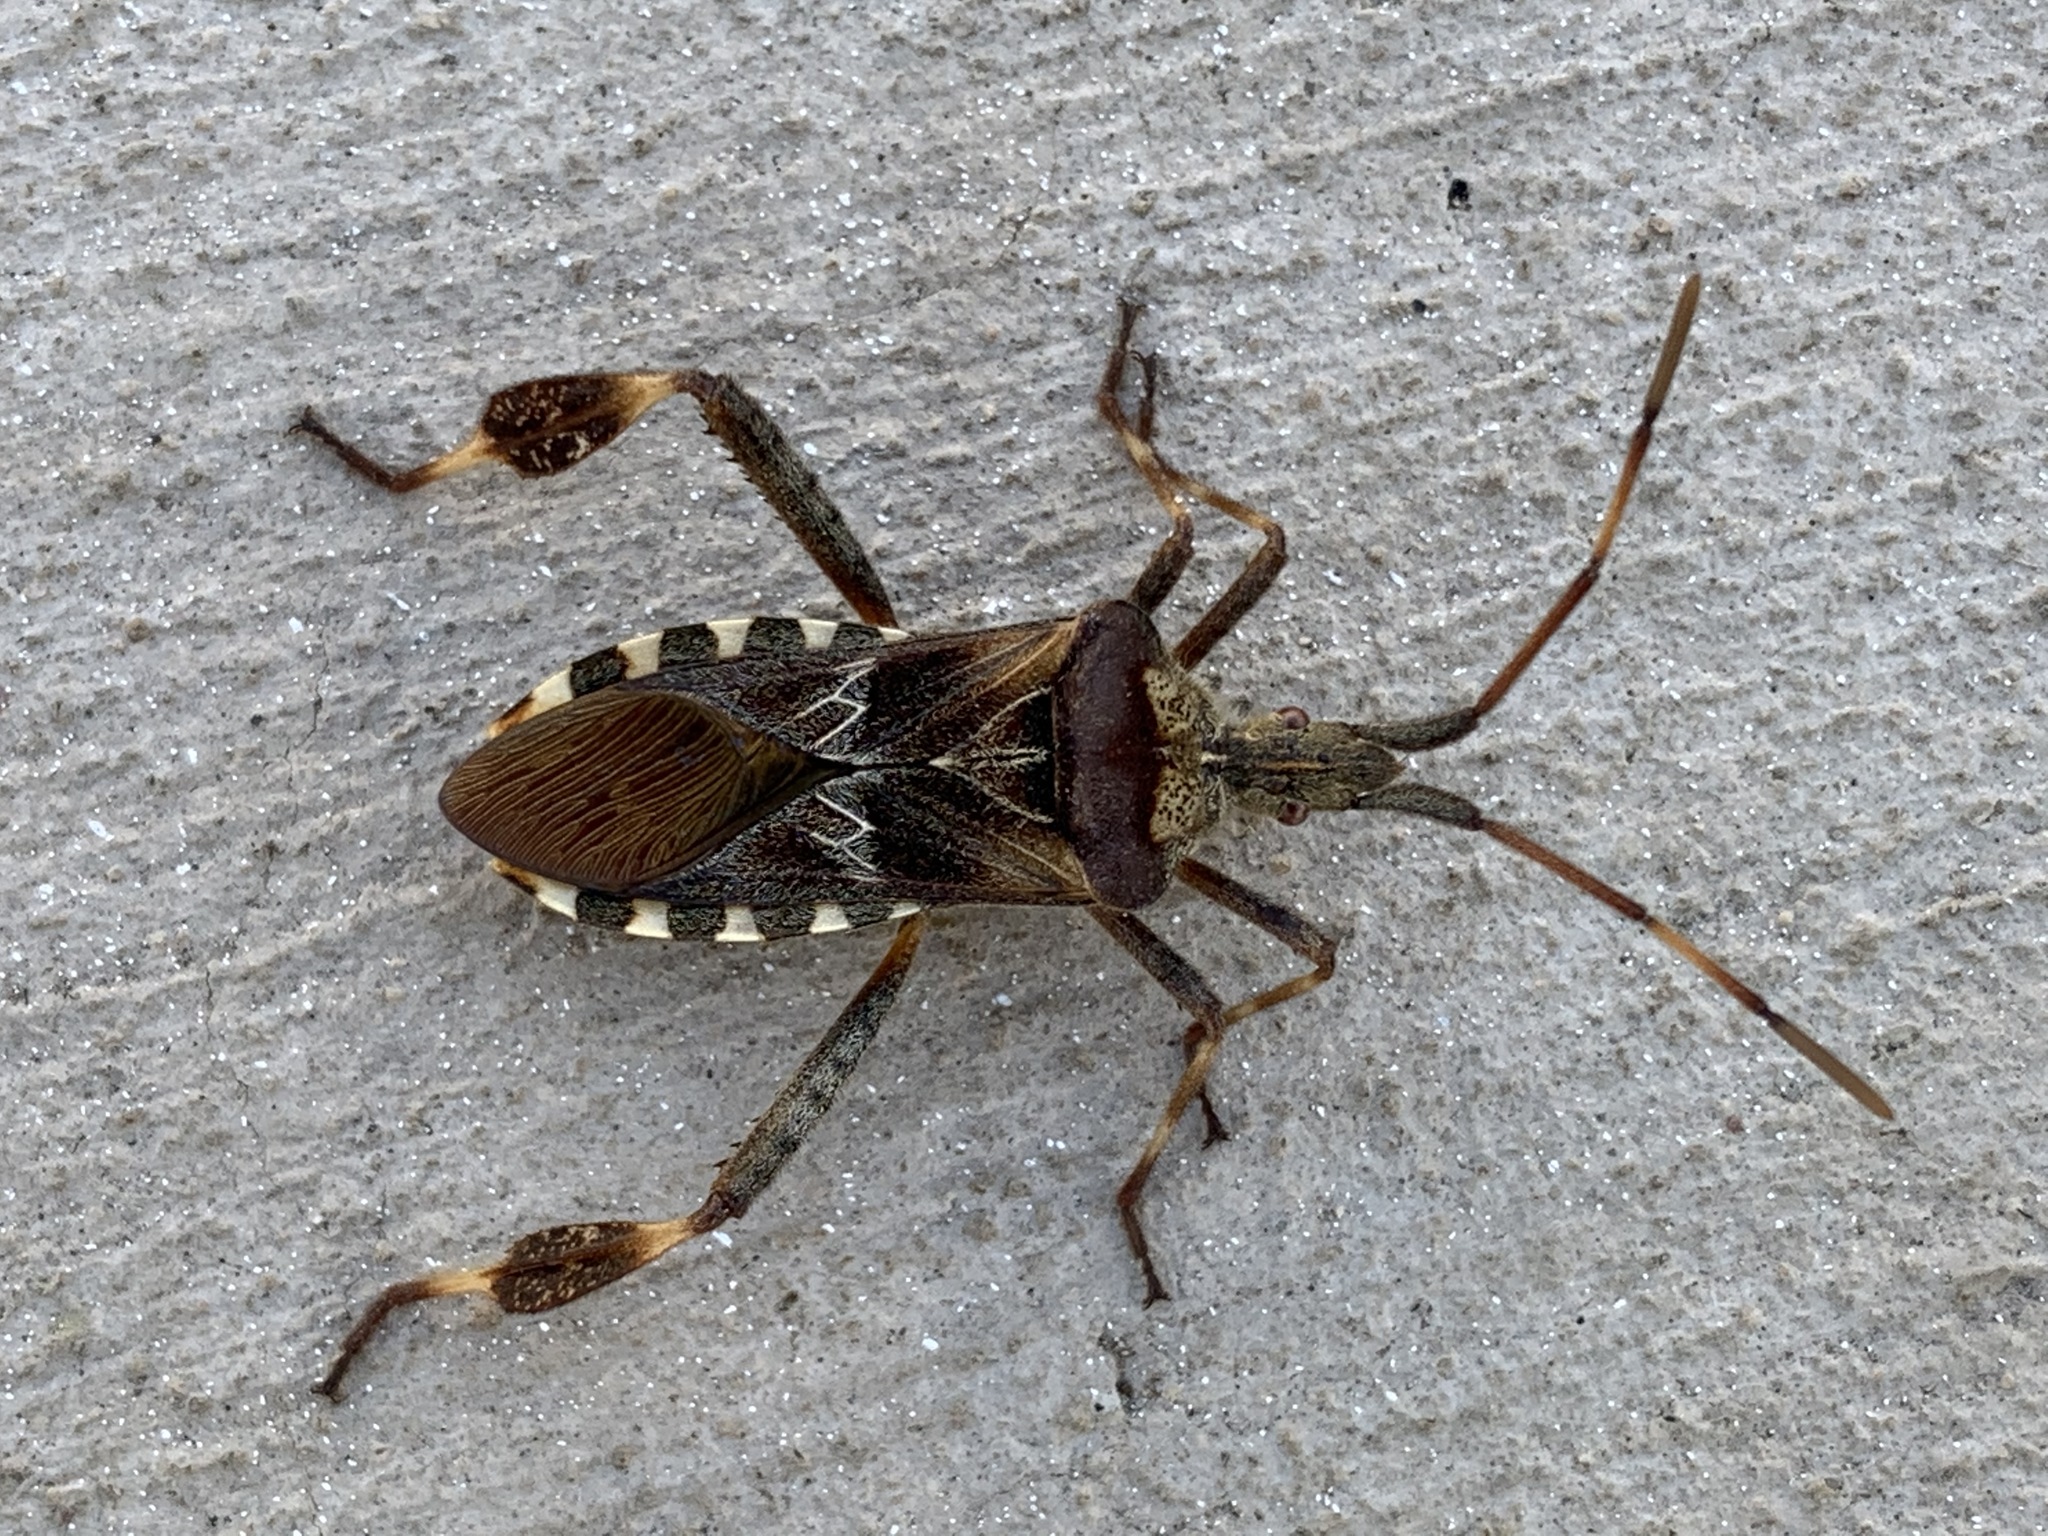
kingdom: Animalia
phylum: Arthropoda
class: Insecta
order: Hemiptera
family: Coreidae
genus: Leptoglossus
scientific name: Leptoglossus occidentalis
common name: Western conifer-seed bug
